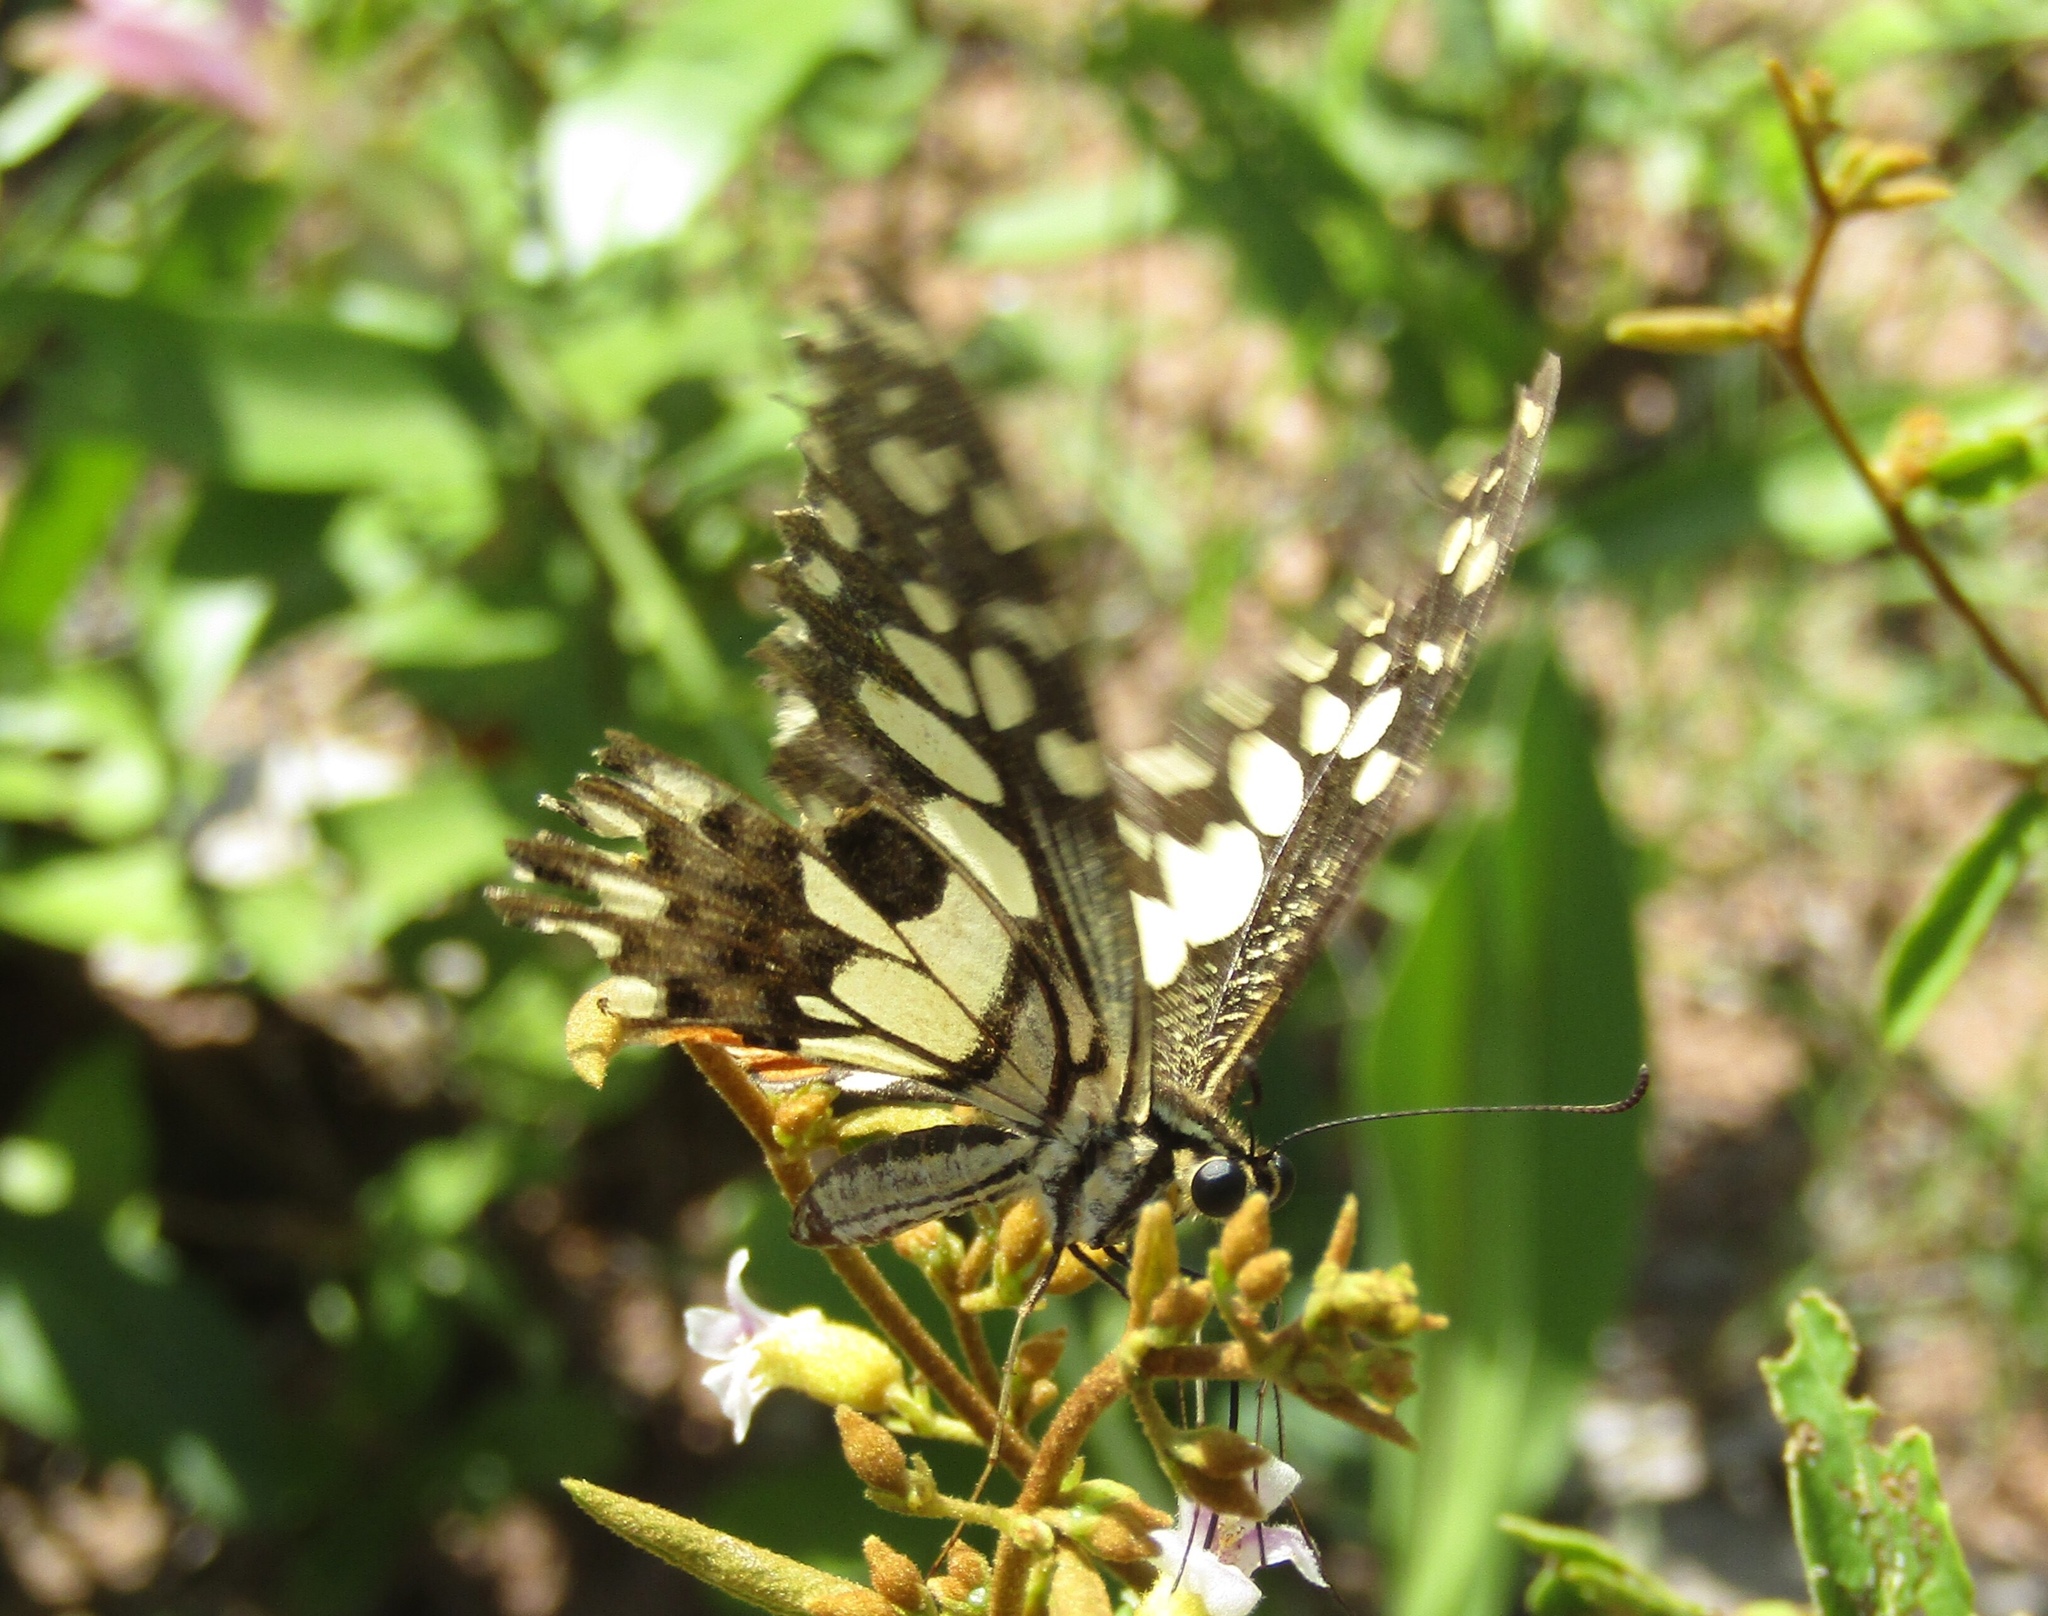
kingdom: Animalia
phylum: Arthropoda
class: Insecta
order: Lepidoptera
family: Papilionidae
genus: Papilio
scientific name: Papilio demoleus
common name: Lime butterfly
